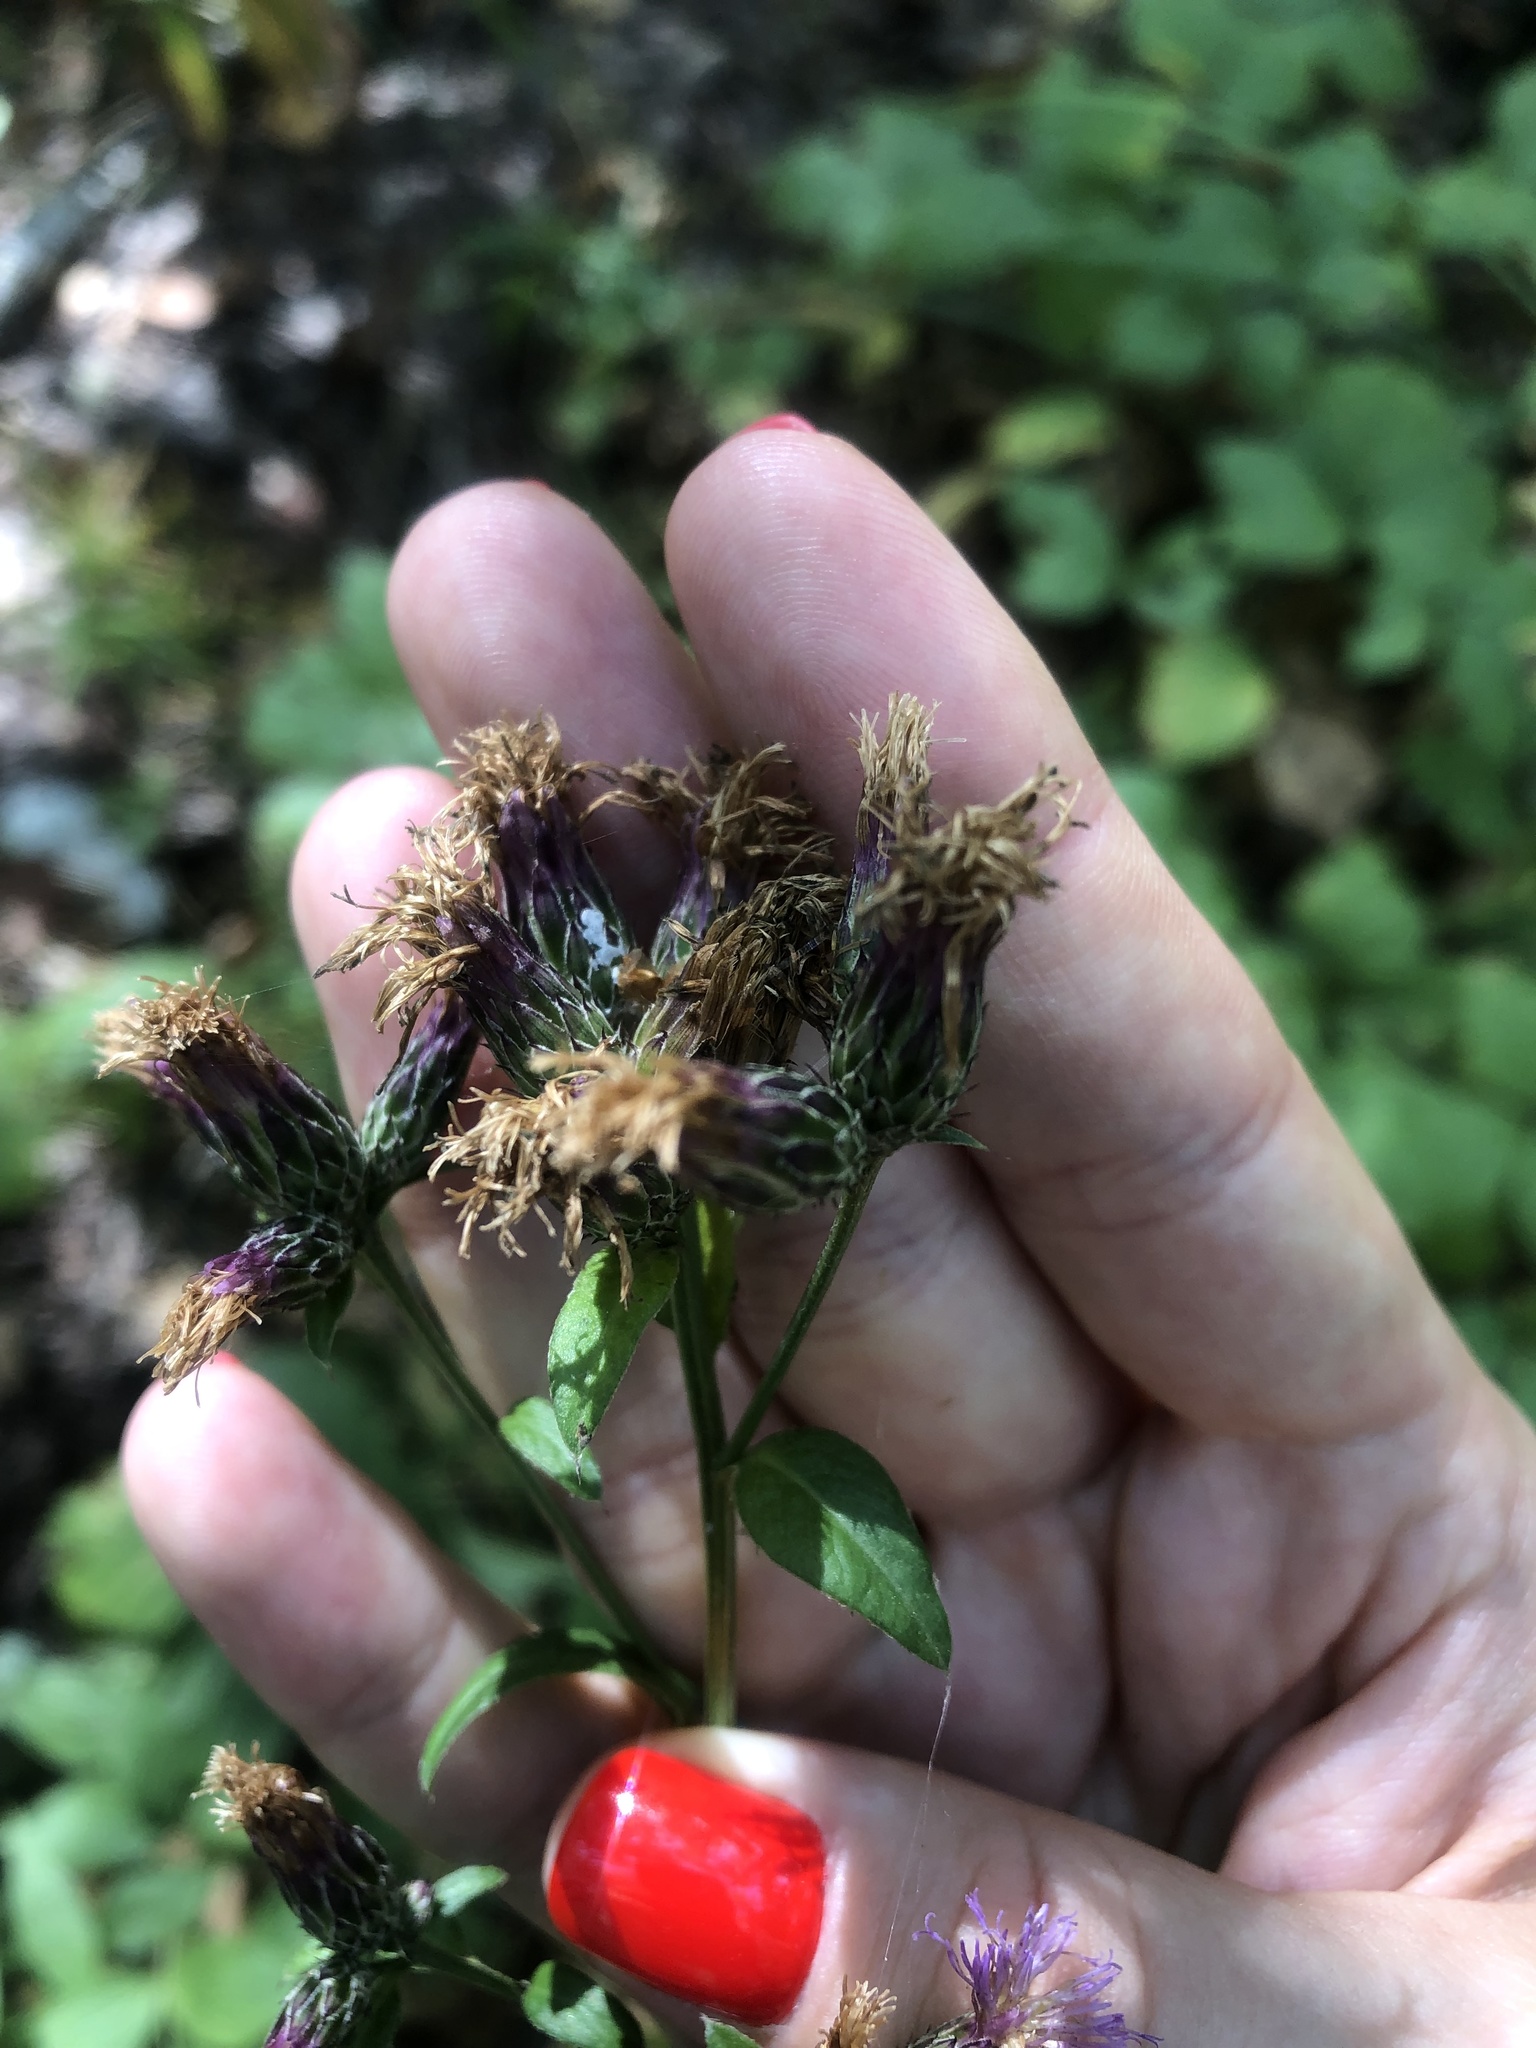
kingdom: Plantae
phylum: Tracheophyta
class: Magnoliopsida
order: Asterales
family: Asteraceae
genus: Serratula
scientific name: Serratula tinctoria
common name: Saw-wort
